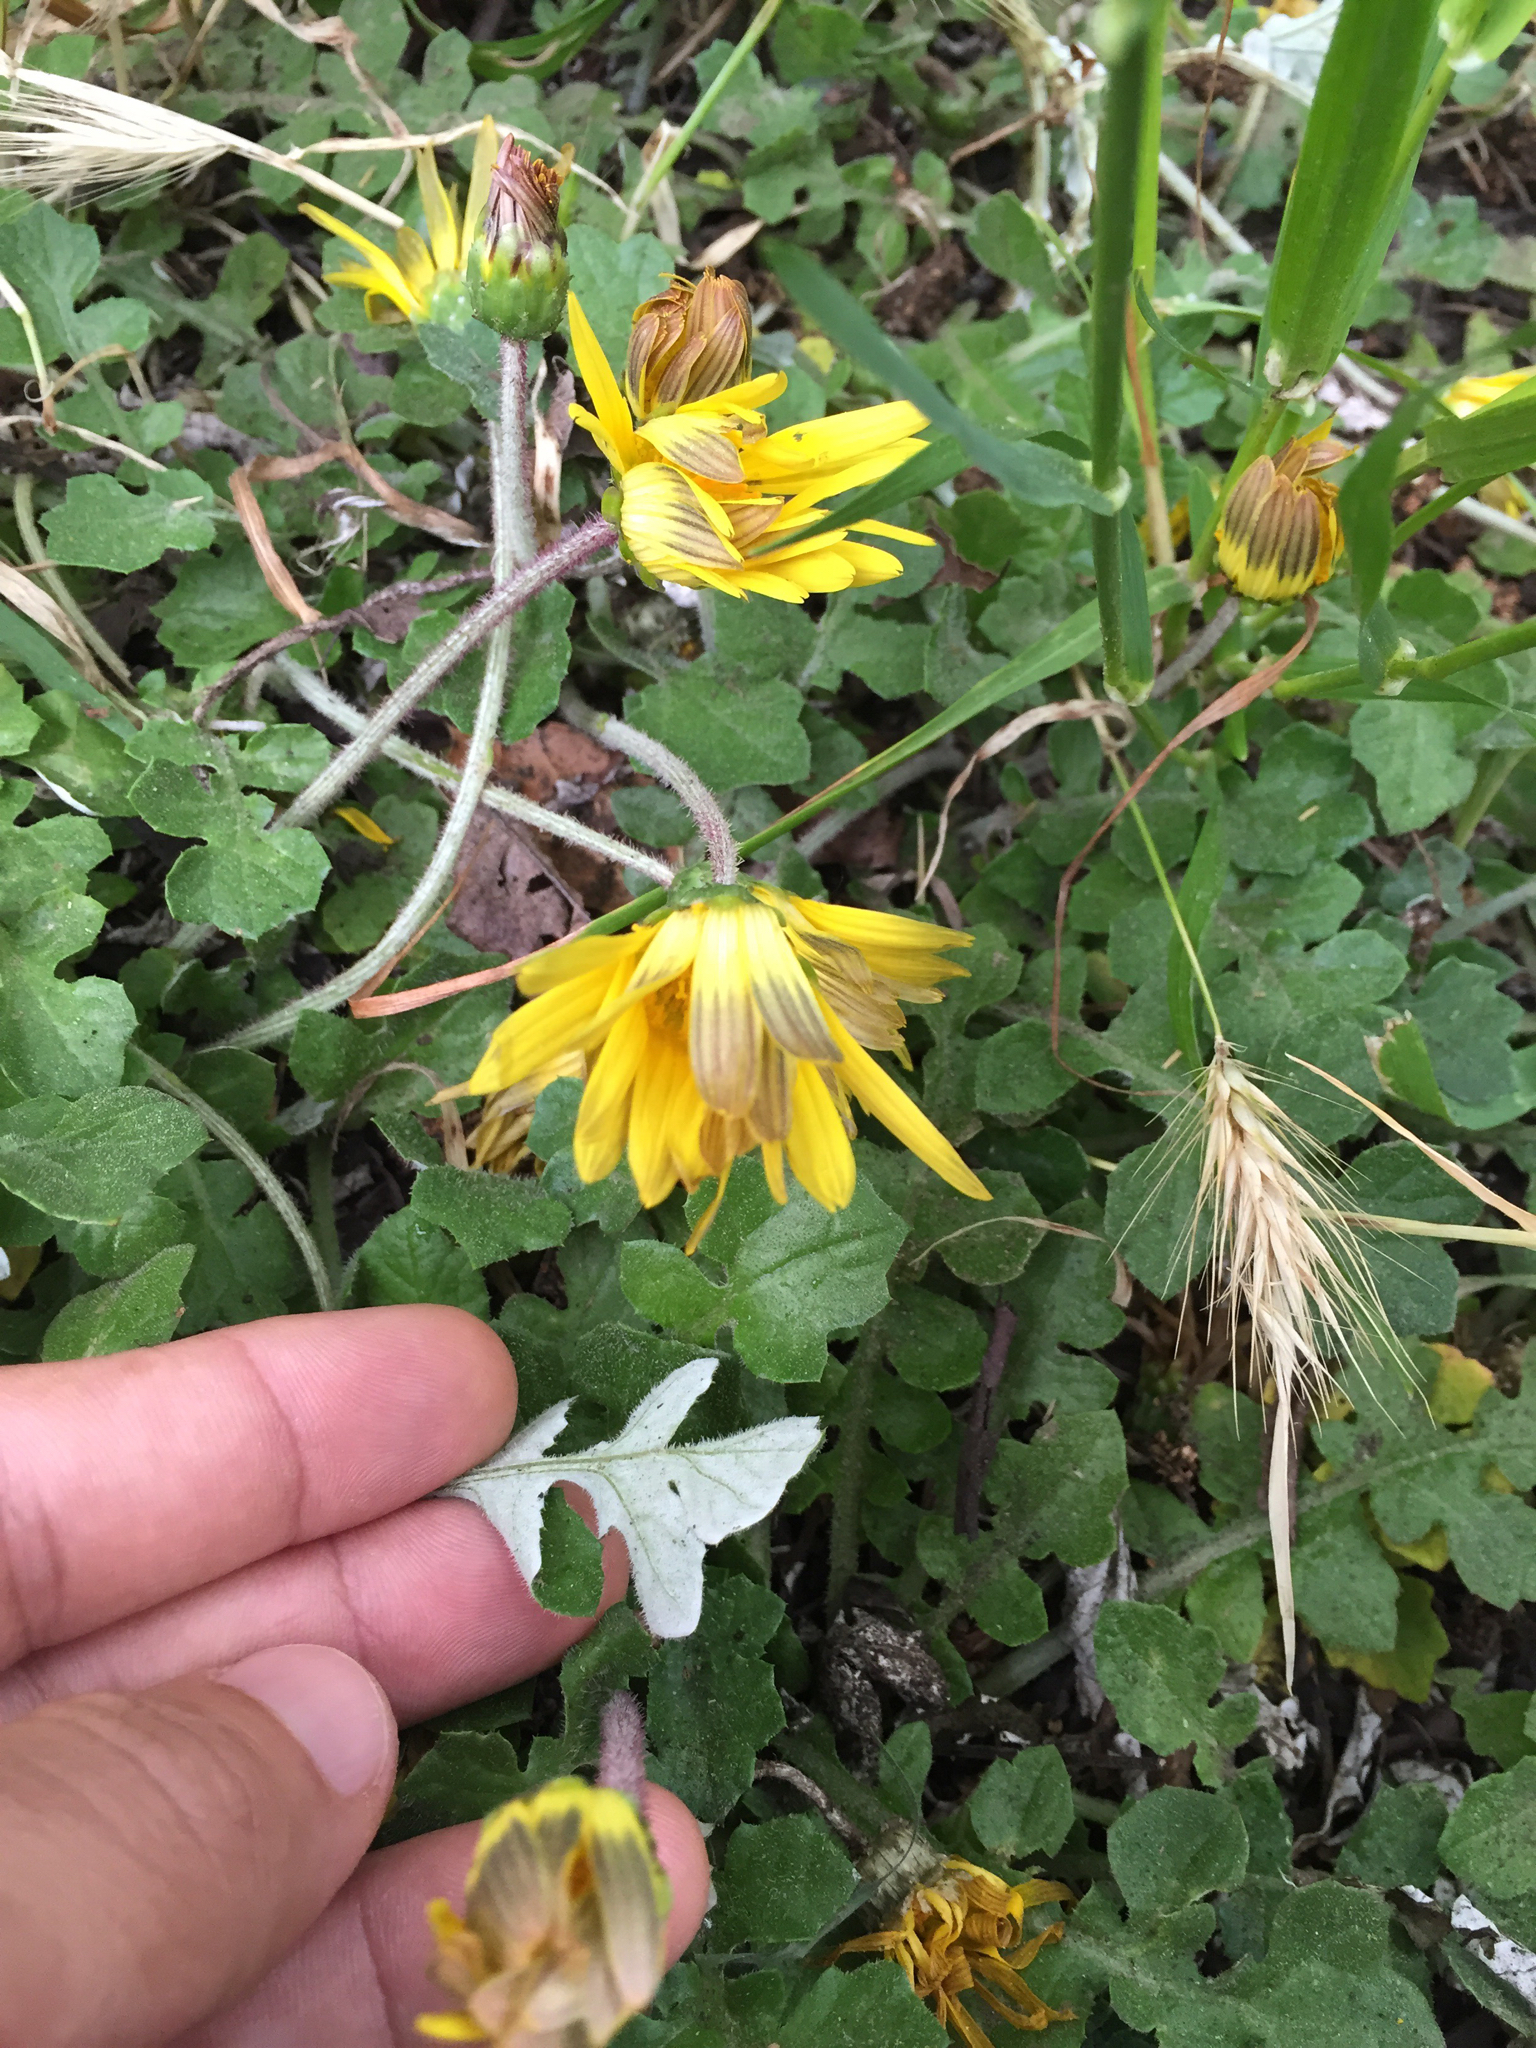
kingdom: Plantae
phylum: Tracheophyta
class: Magnoliopsida
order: Asterales
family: Asteraceae
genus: Arctotheca
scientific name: Arctotheca prostrata
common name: Capeweed
